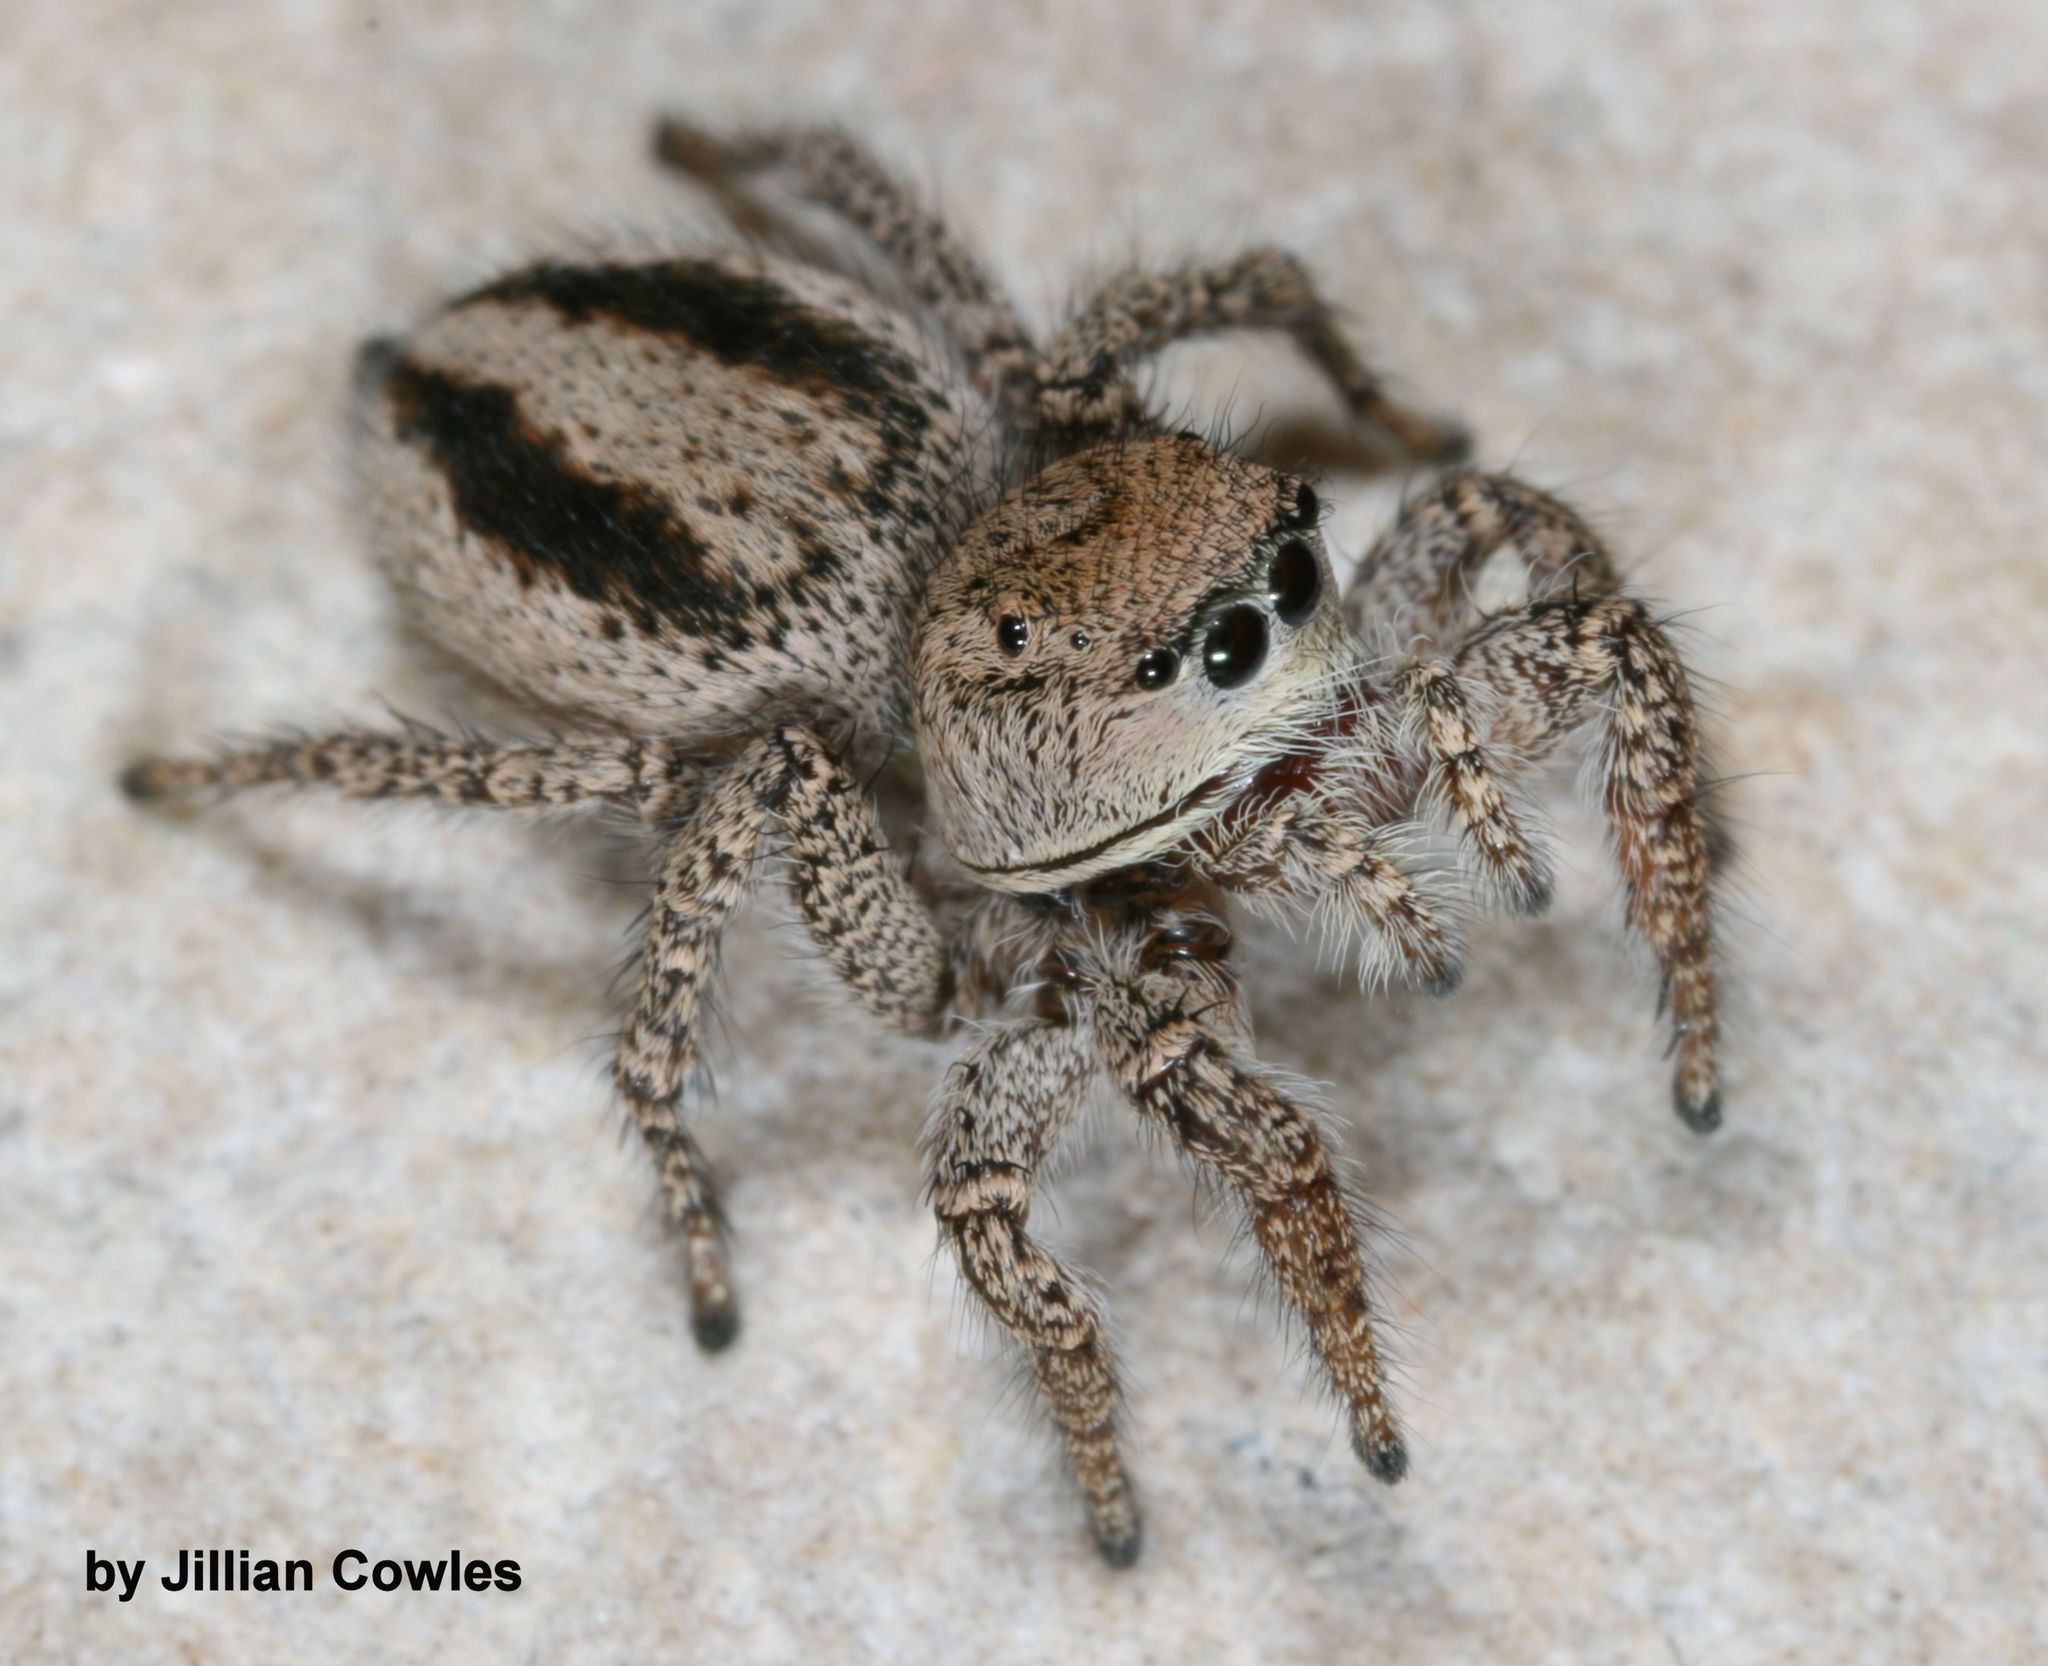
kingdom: Animalia
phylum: Arthropoda
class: Arachnida
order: Araneae
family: Salticidae
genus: Habronattus
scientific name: Habronattus pugillis
